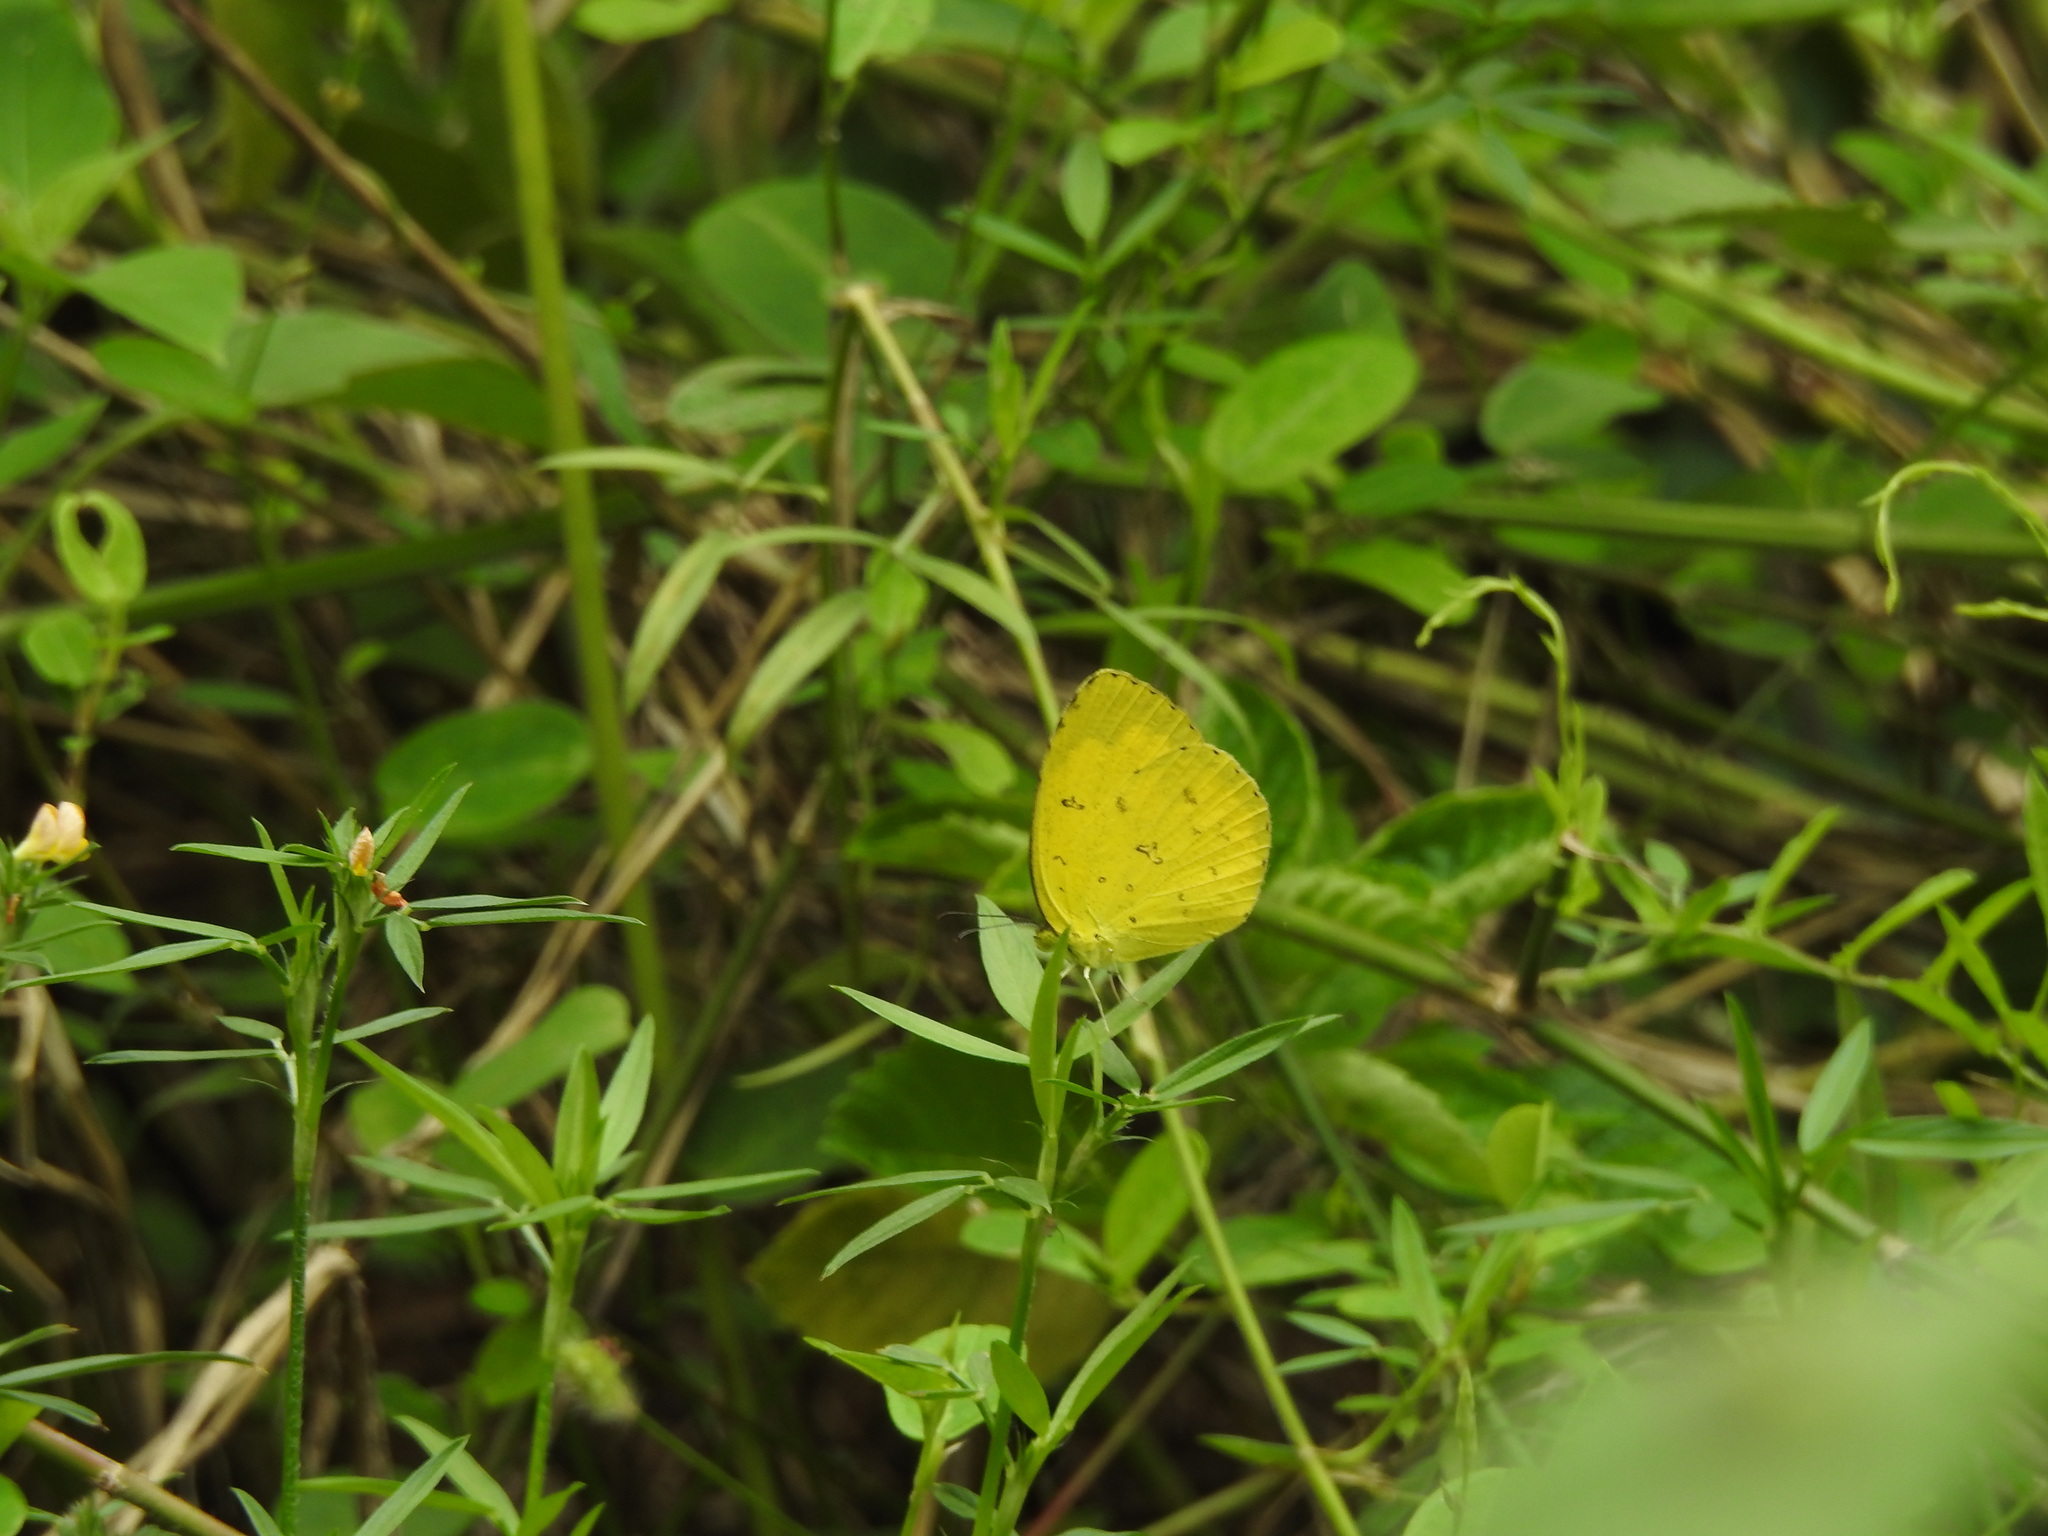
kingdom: Animalia
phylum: Arthropoda
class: Insecta
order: Lepidoptera
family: Pieridae
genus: Eurema
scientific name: Eurema hecabe
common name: Pale grass yellow
